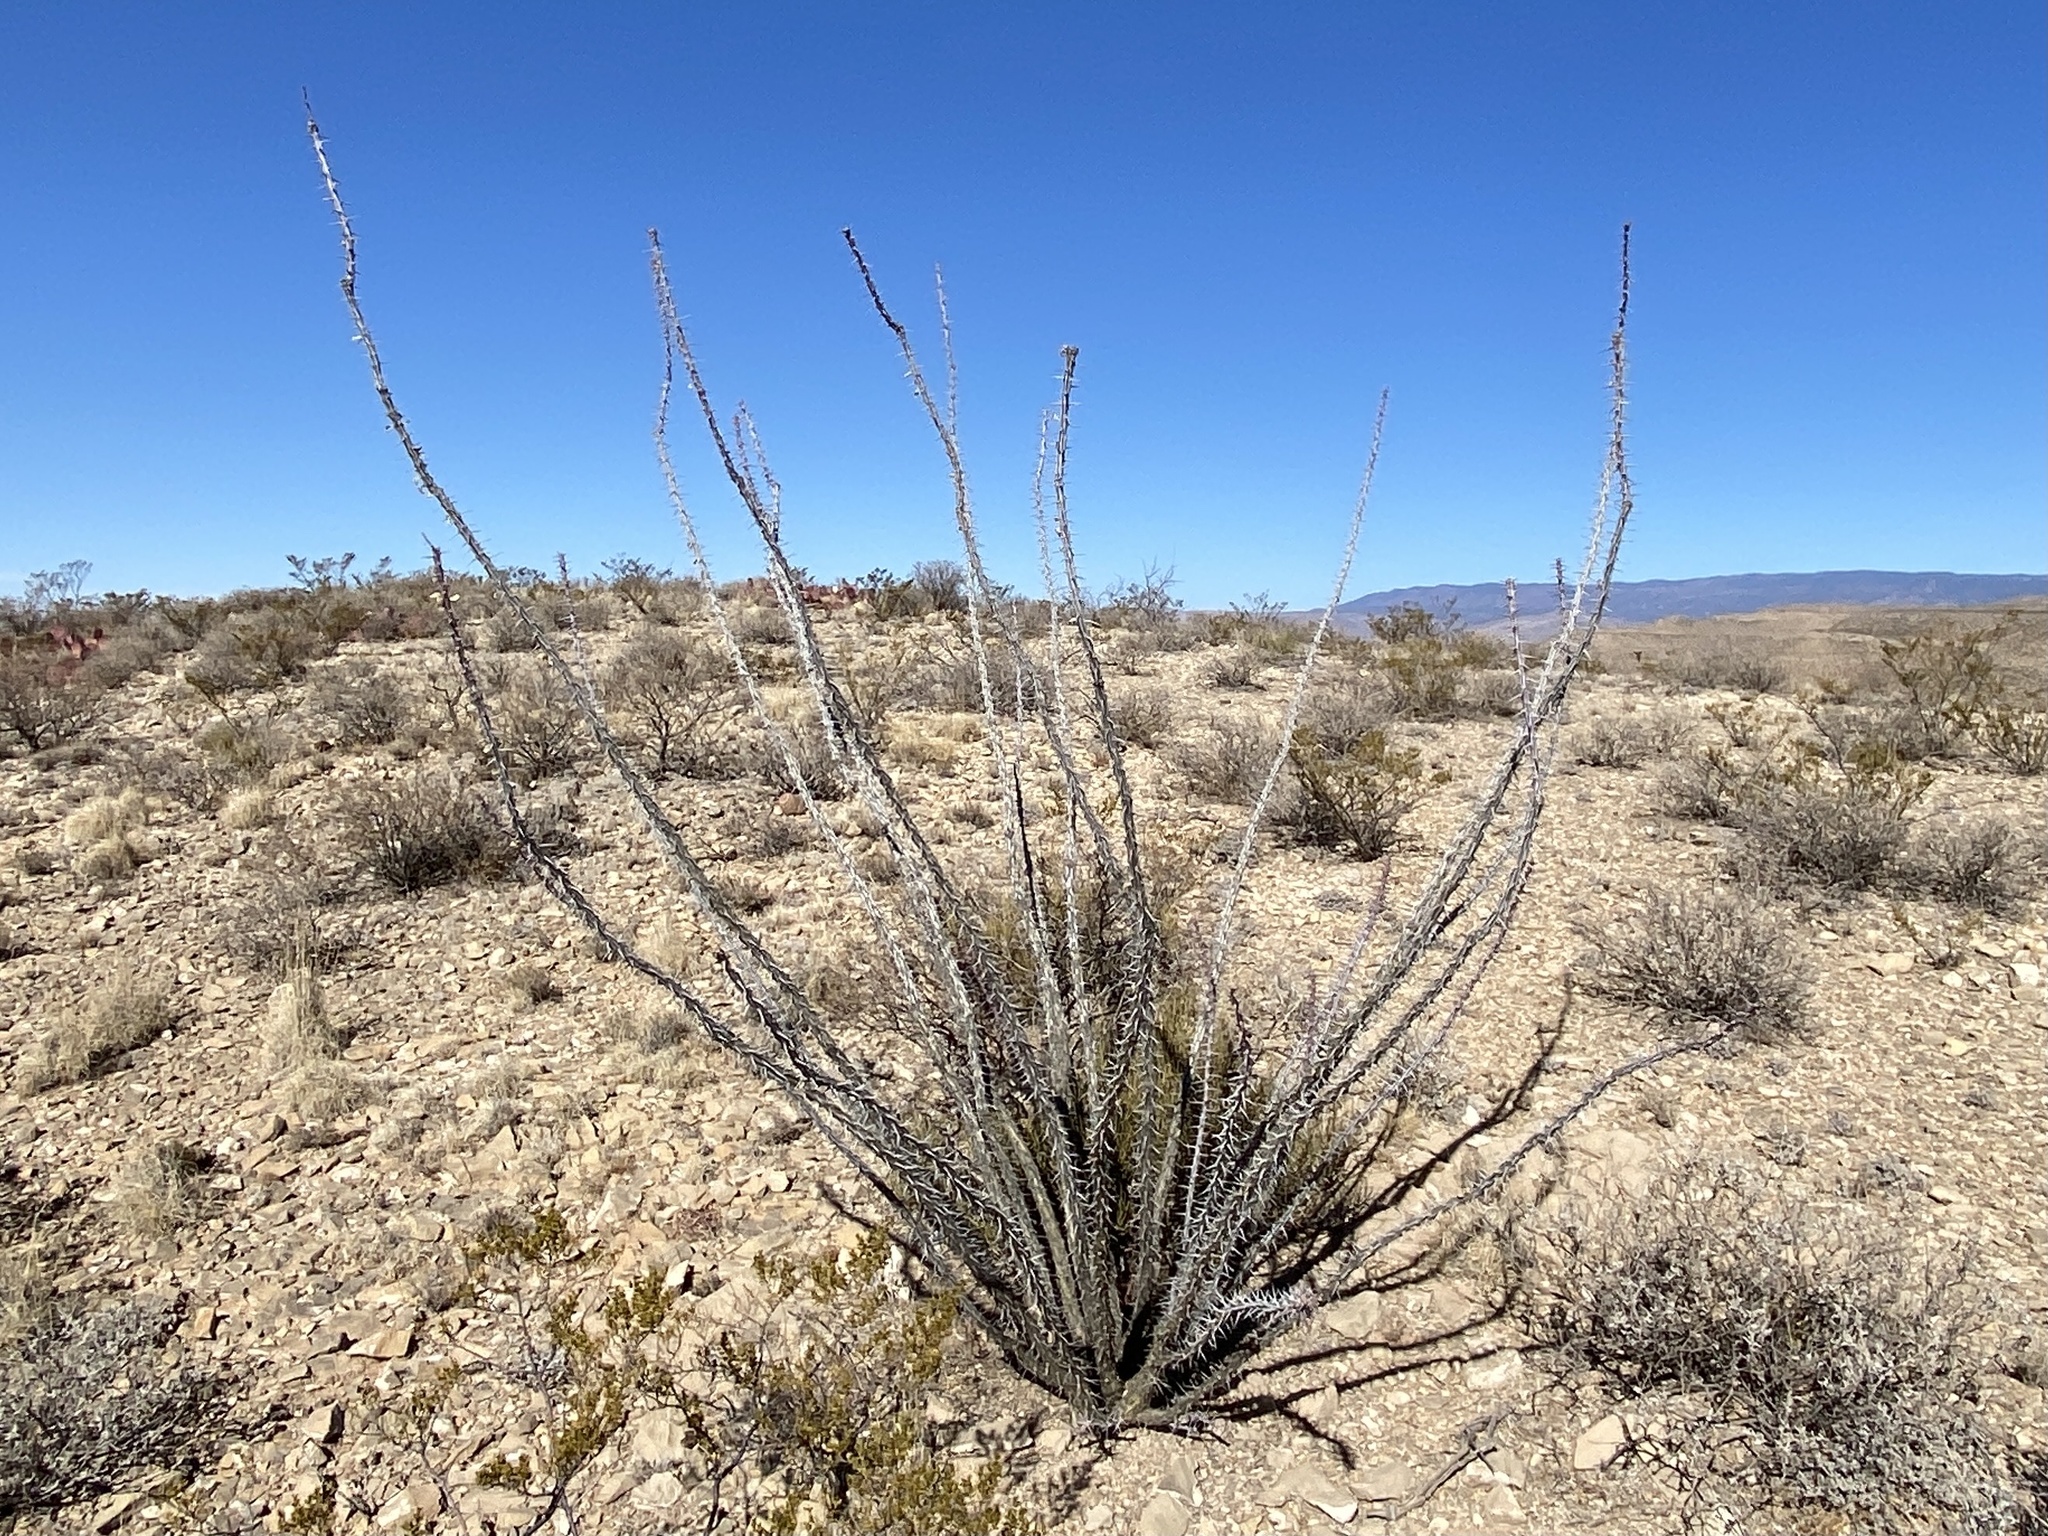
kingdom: Plantae
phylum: Tracheophyta
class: Magnoliopsida
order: Ericales
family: Fouquieriaceae
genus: Fouquieria
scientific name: Fouquieria splendens
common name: Vine-cactus
